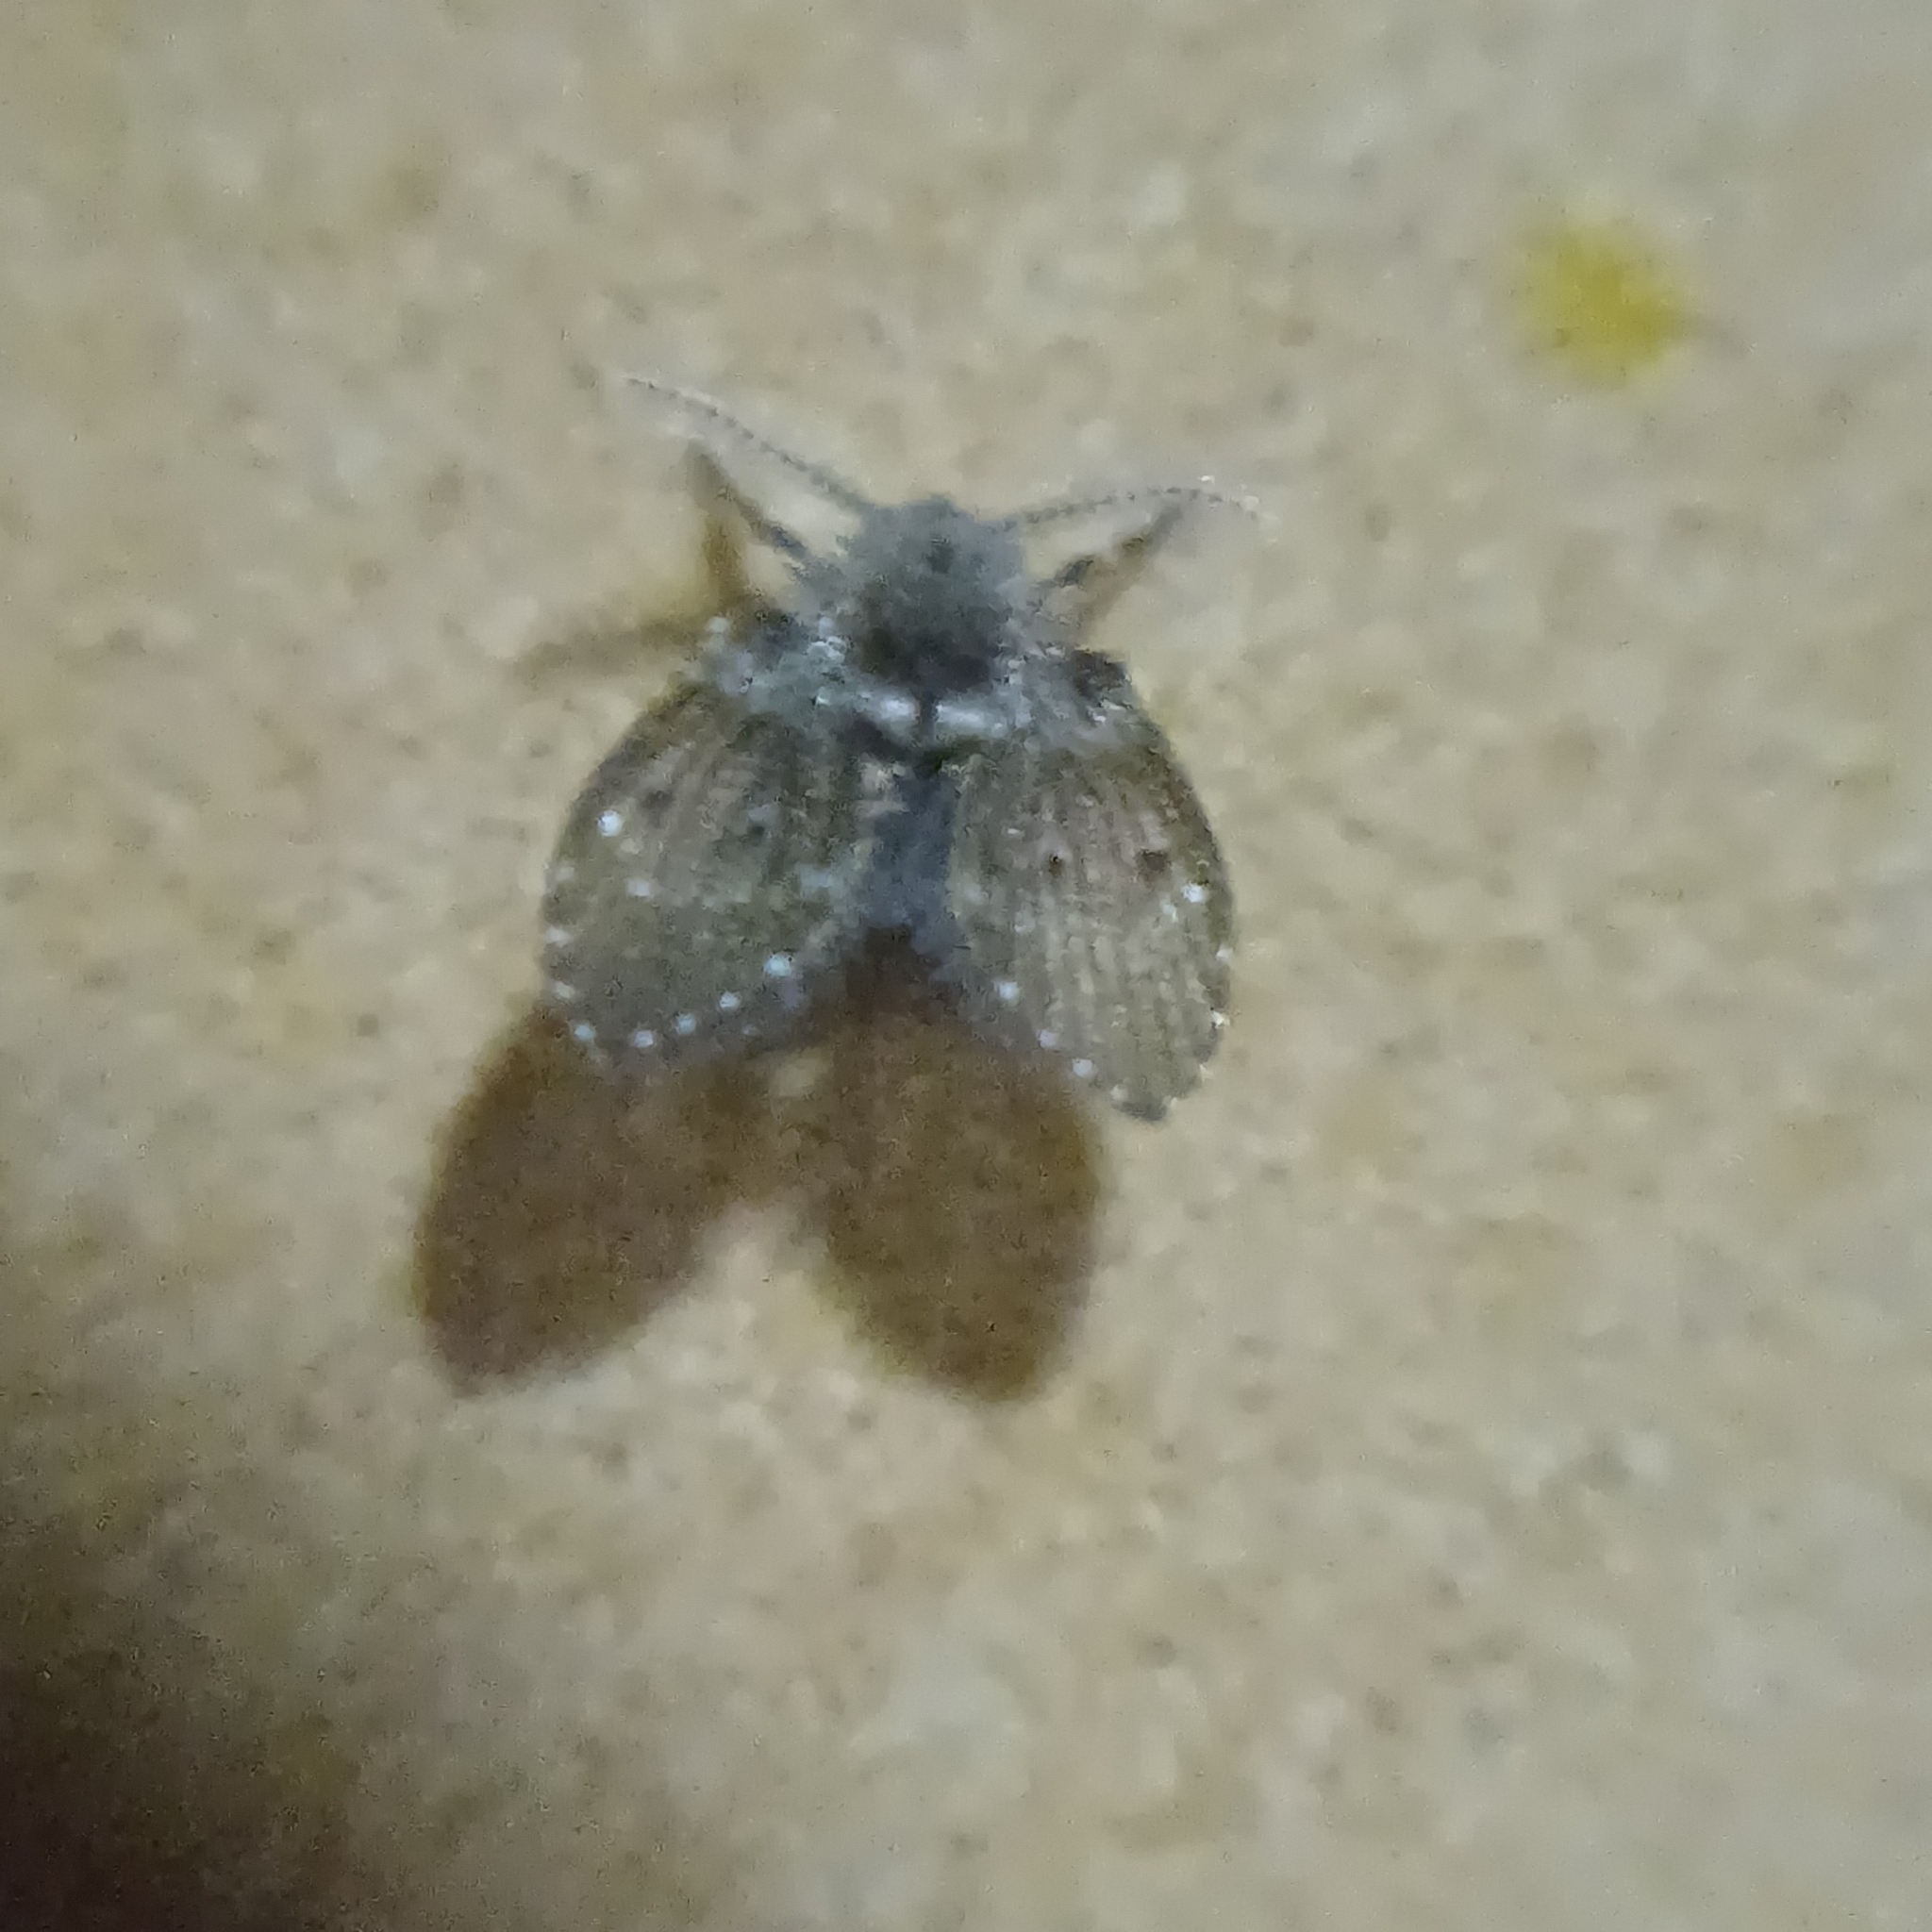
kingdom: Animalia
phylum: Arthropoda
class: Insecta
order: Diptera
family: Psychodidae
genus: Clogmia
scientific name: Clogmia albipunctatus
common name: White-spotted moth fly
